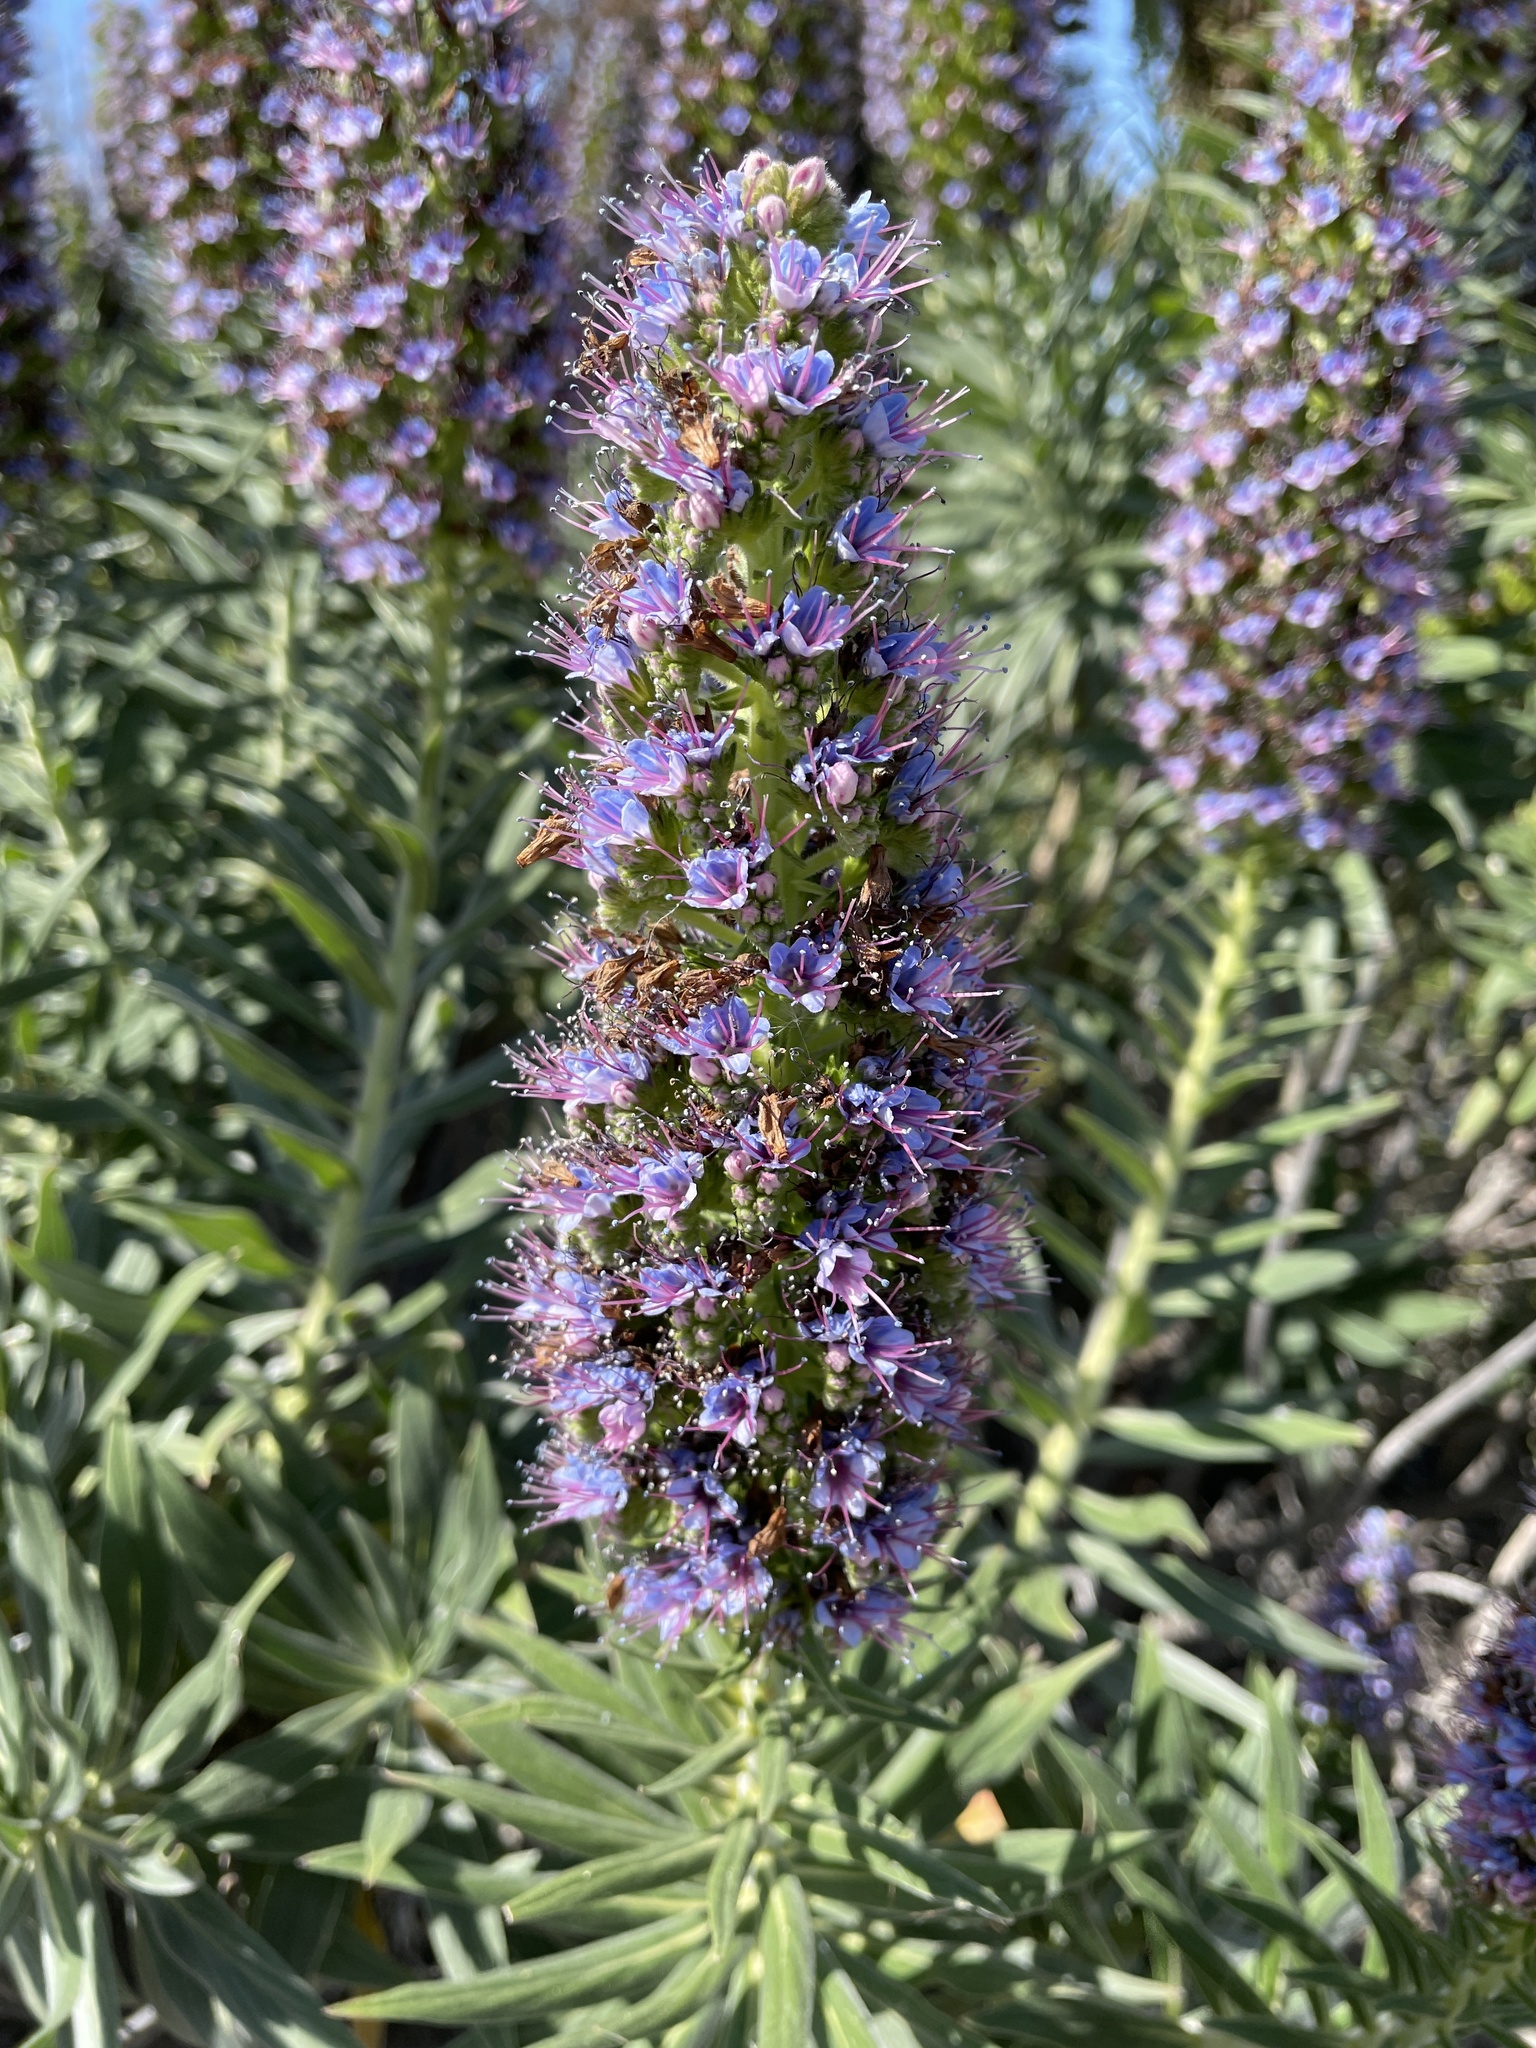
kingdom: Plantae
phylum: Tracheophyta
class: Magnoliopsida
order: Boraginales
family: Boraginaceae
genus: Echium
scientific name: Echium candicans
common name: Pride of madeira
